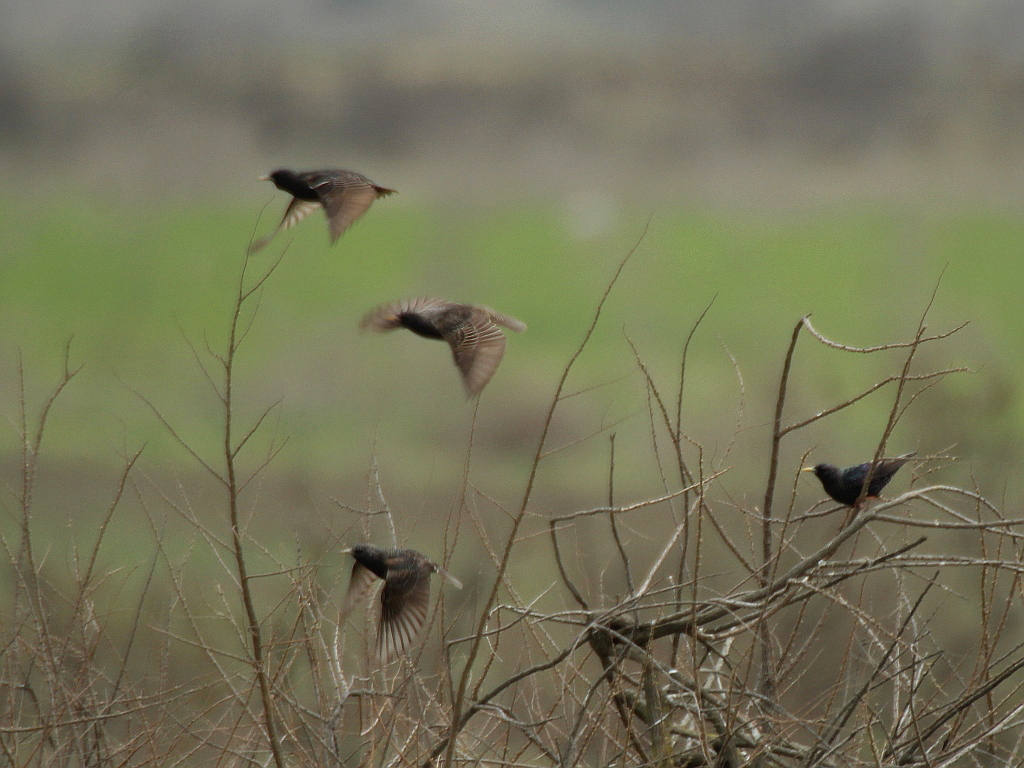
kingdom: Animalia
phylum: Chordata
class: Aves
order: Passeriformes
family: Sturnidae
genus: Sturnus
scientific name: Sturnus vulgaris
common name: Common starling
